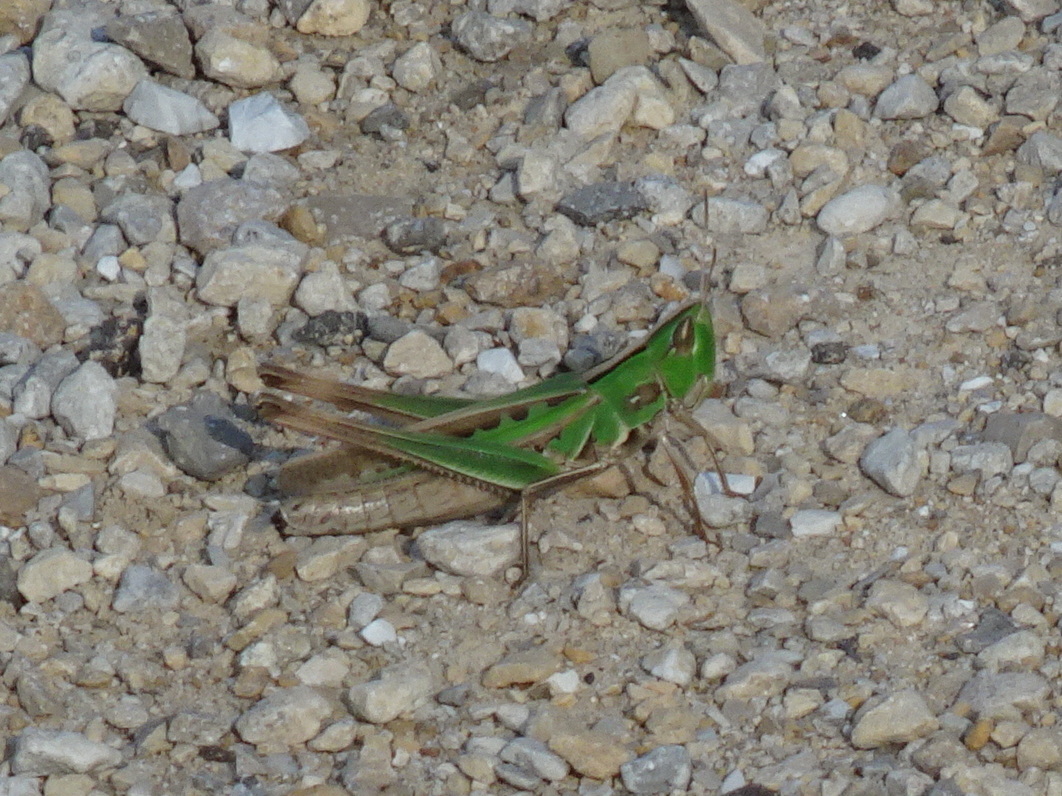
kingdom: Animalia
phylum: Arthropoda
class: Insecta
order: Orthoptera
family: Acrididae
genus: Syrbula
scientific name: Syrbula admirabilis
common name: Handsome grasshopper
